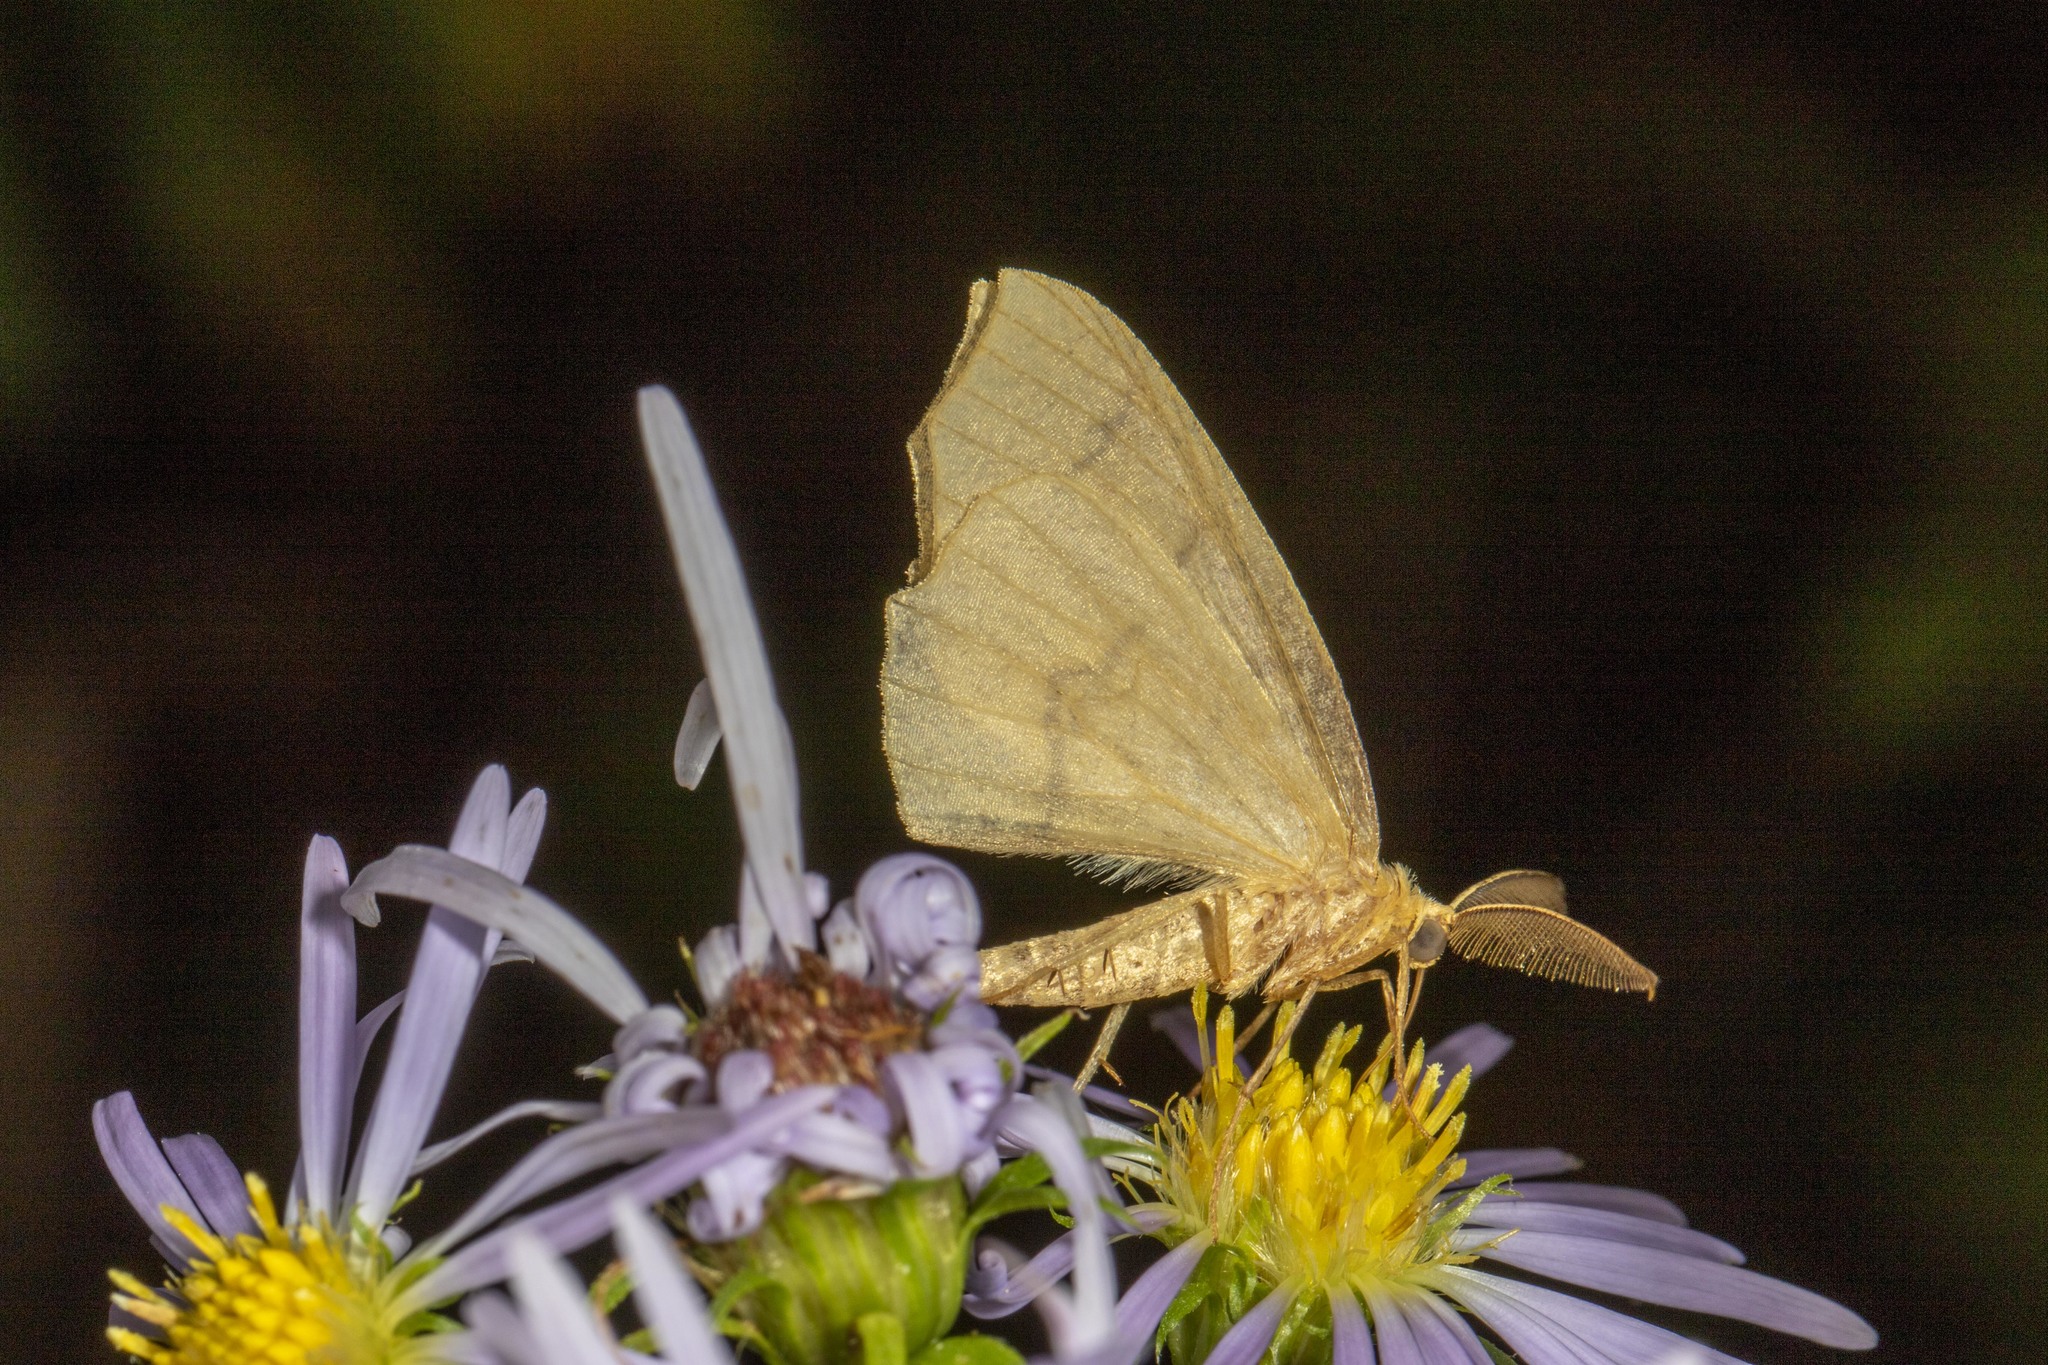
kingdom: Animalia
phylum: Arthropoda
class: Insecta
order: Lepidoptera
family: Geometridae
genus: Lambdina
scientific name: Lambdina fiscellaria
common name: Hemlock looper
